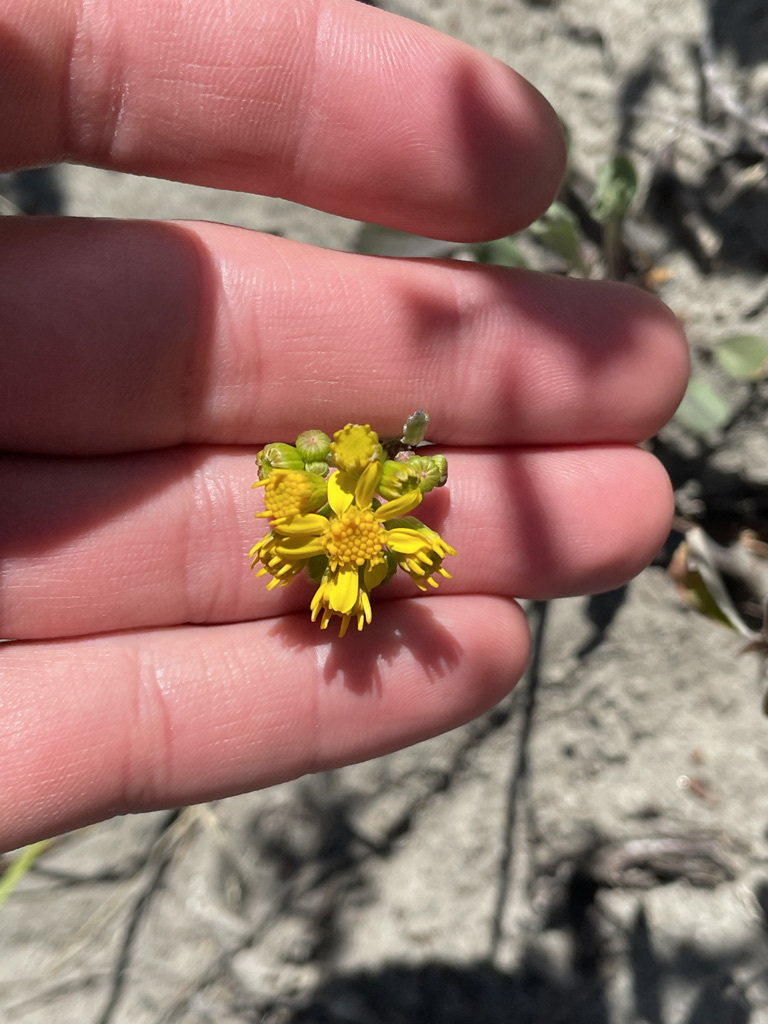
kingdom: Plantae
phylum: Tracheophyta
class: Magnoliopsida
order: Asterales
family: Asteraceae
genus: Packera
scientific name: Packera streptanthifolia
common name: Rocky mountain butterweed
